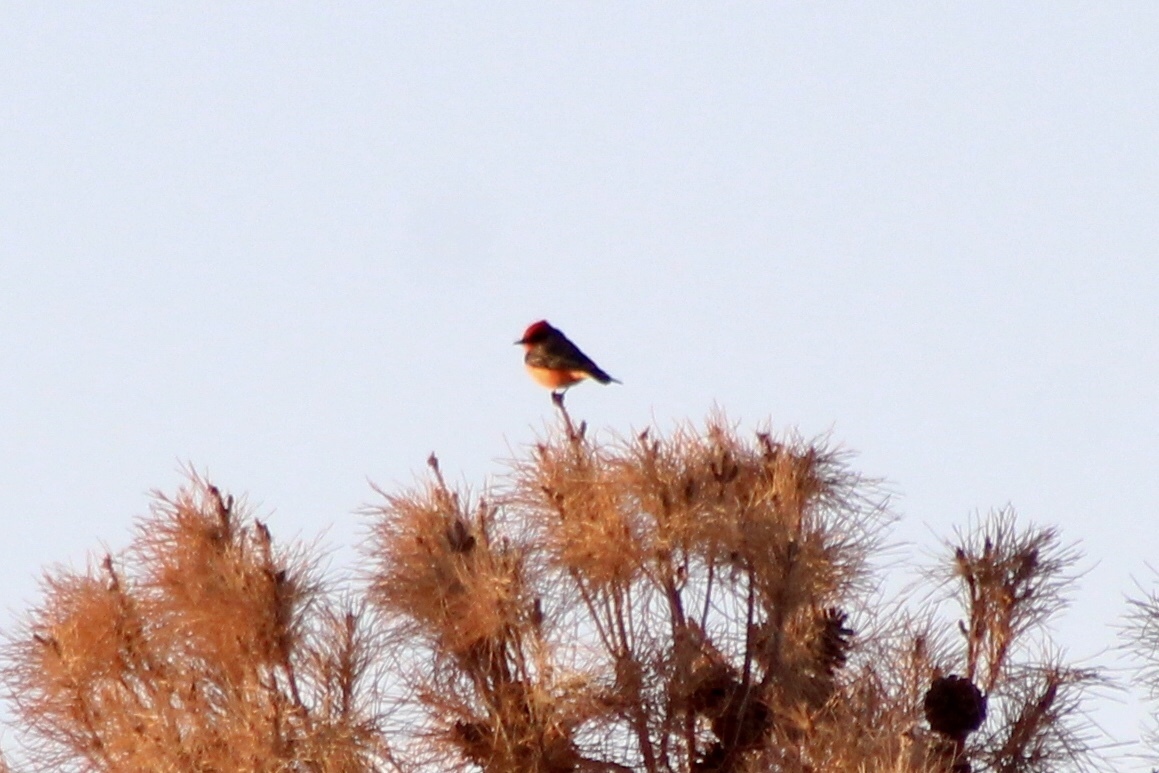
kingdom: Animalia
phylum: Chordata
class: Aves
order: Passeriformes
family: Tyrannidae
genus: Pyrocephalus
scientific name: Pyrocephalus rubinus
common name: Vermilion flycatcher
